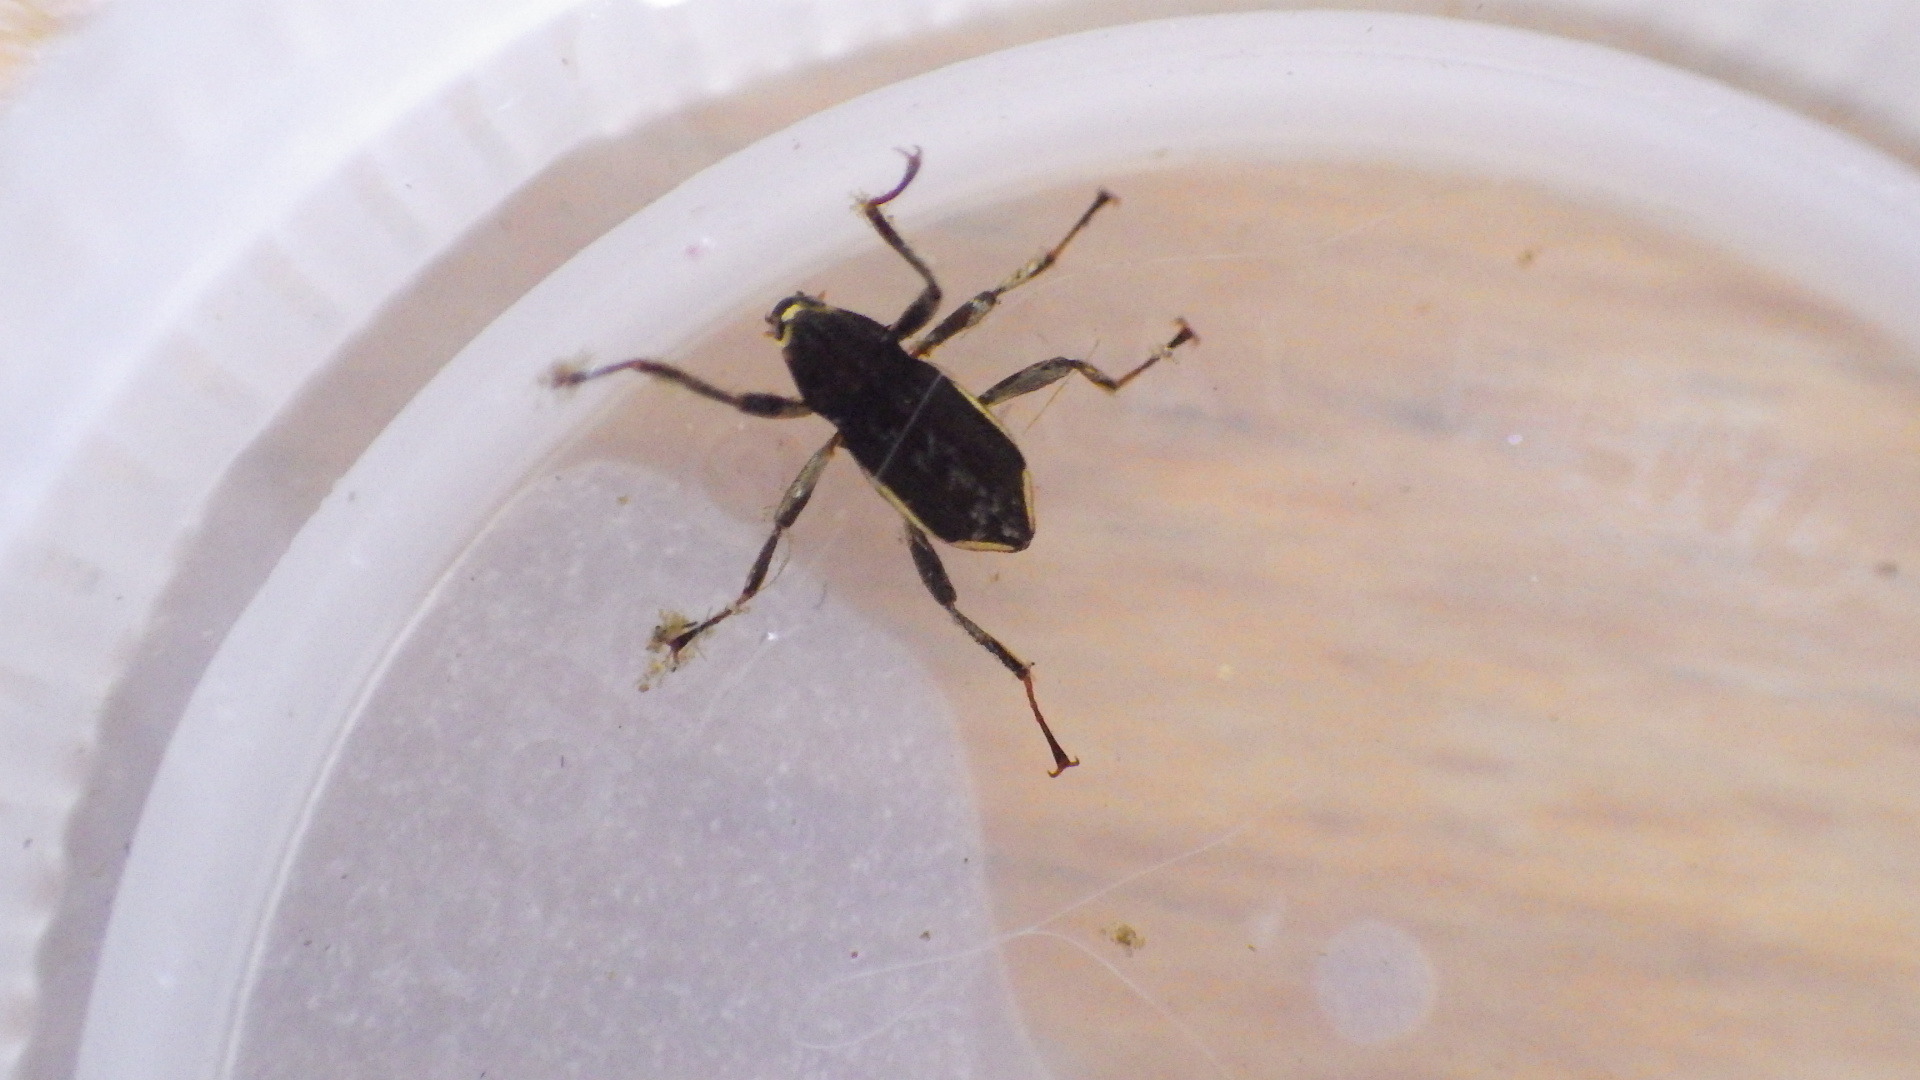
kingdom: Animalia
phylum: Arthropoda
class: Insecta
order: Coleoptera
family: Elmidae
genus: Macronychus
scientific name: Macronychus glabratus
